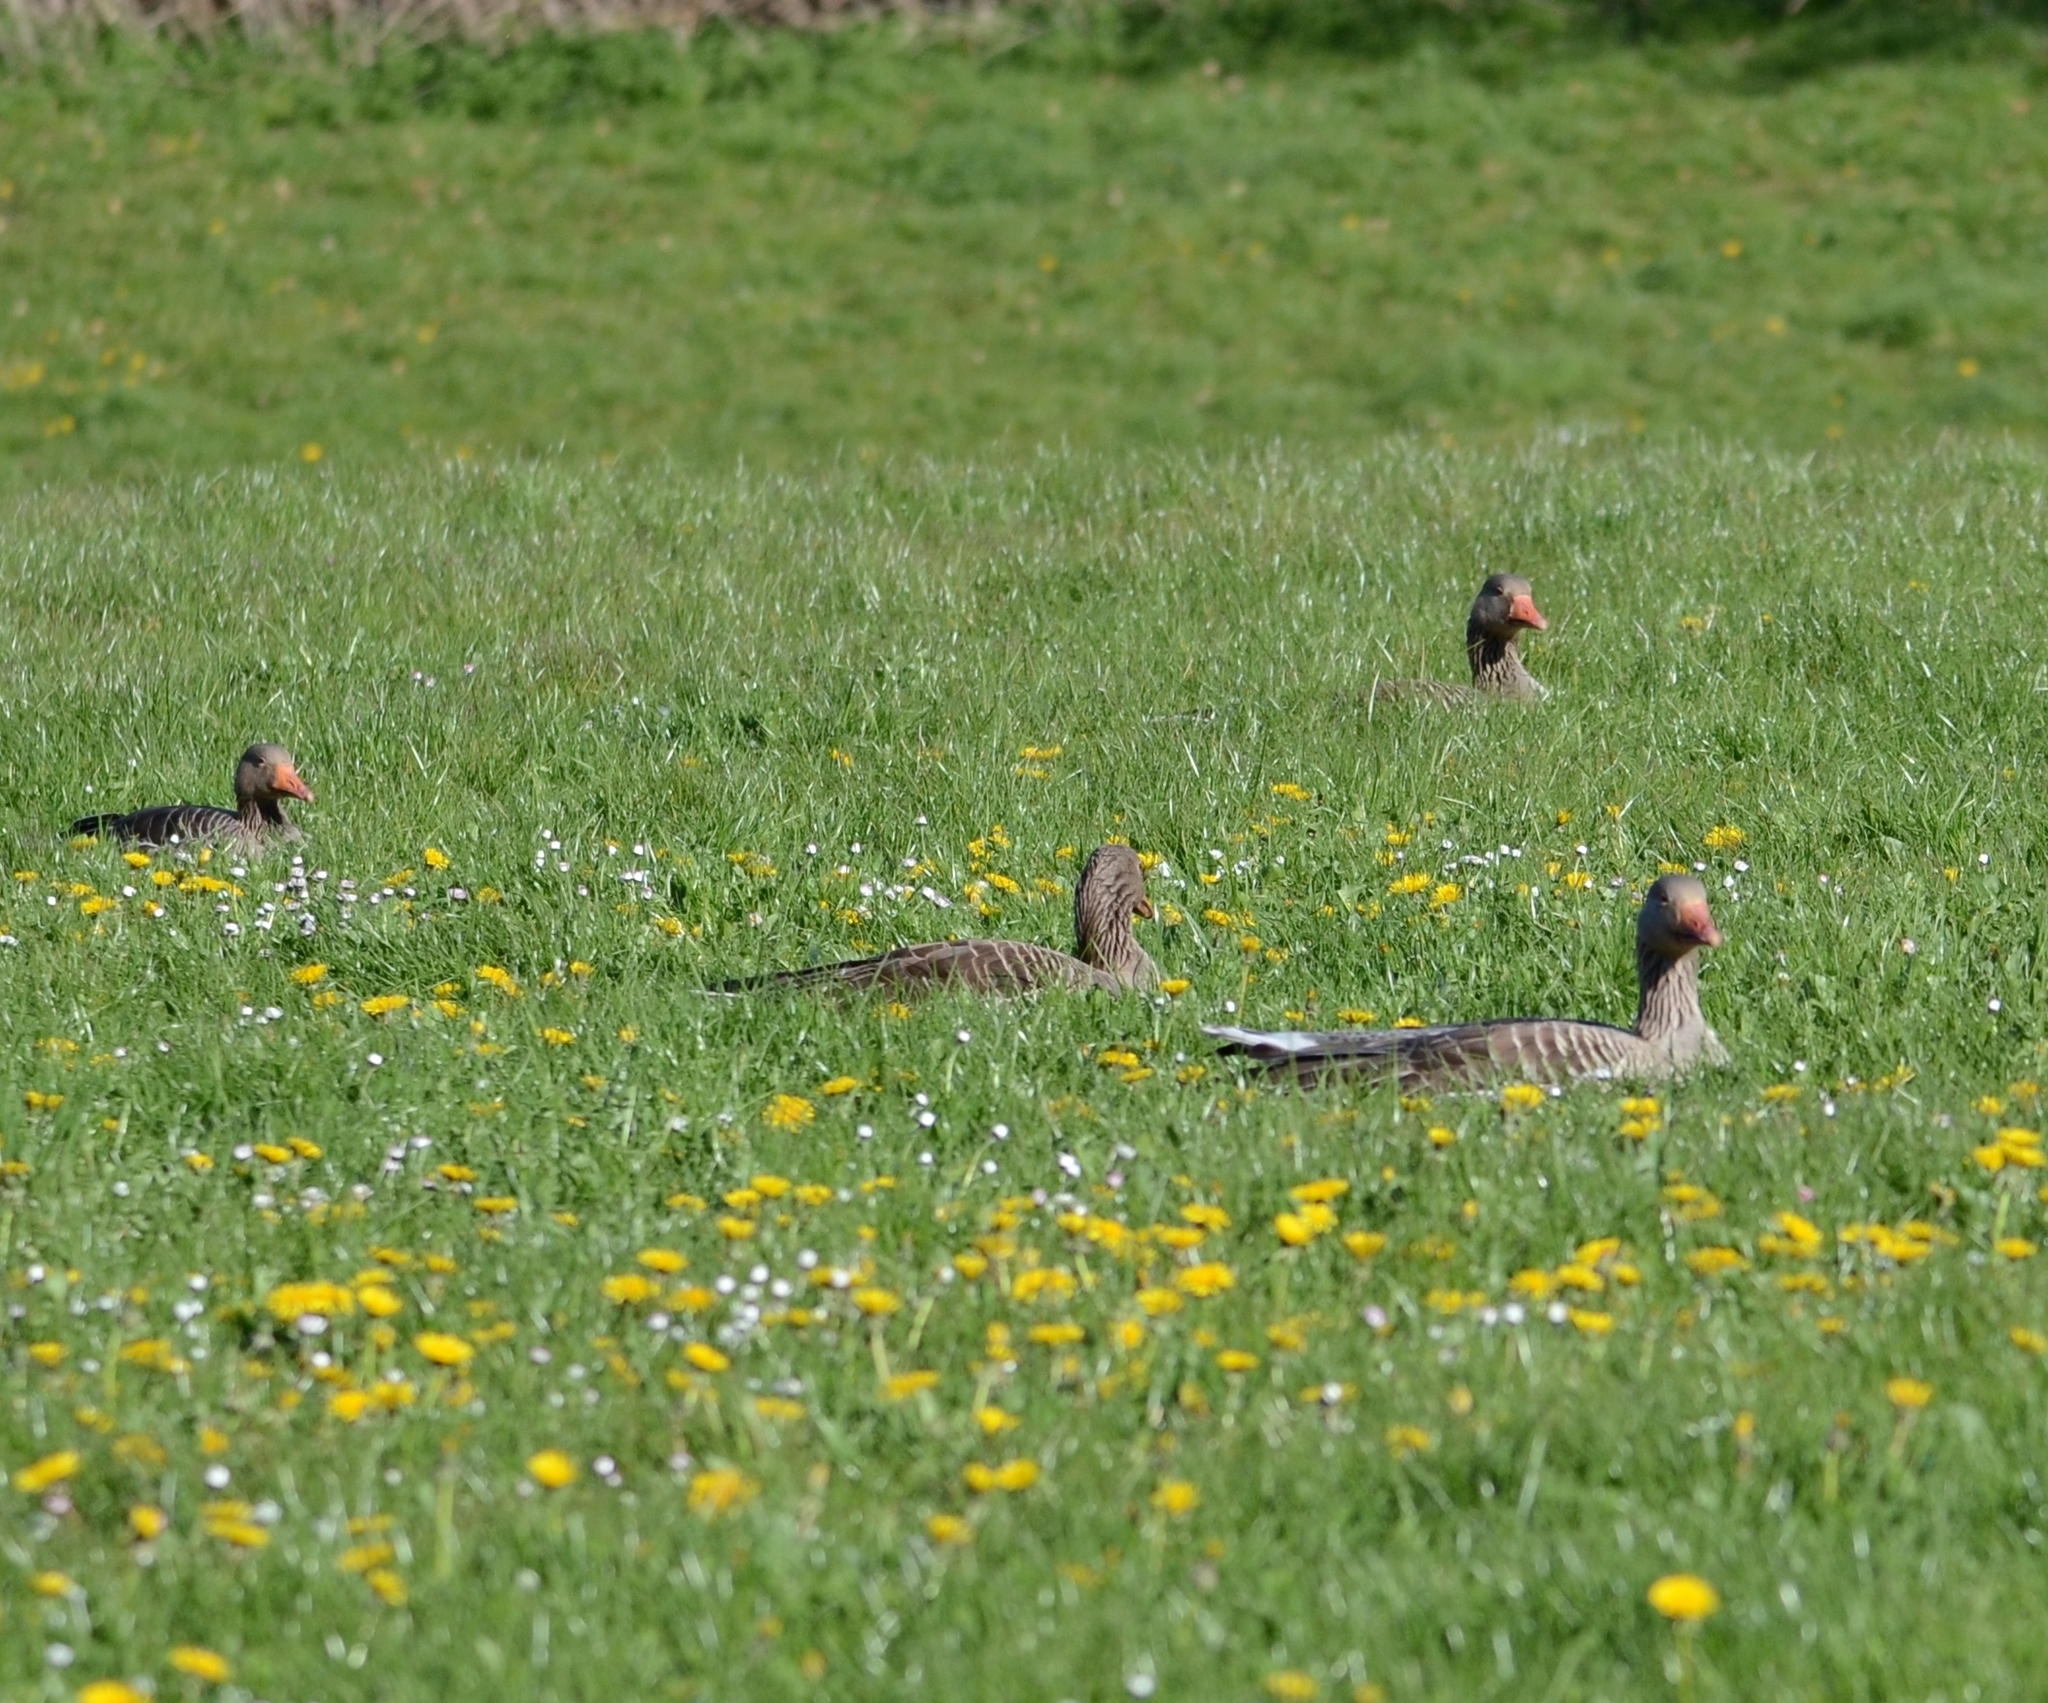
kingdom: Animalia
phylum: Chordata
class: Aves
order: Anseriformes
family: Anatidae
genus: Anser
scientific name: Anser anser
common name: Greylag goose
